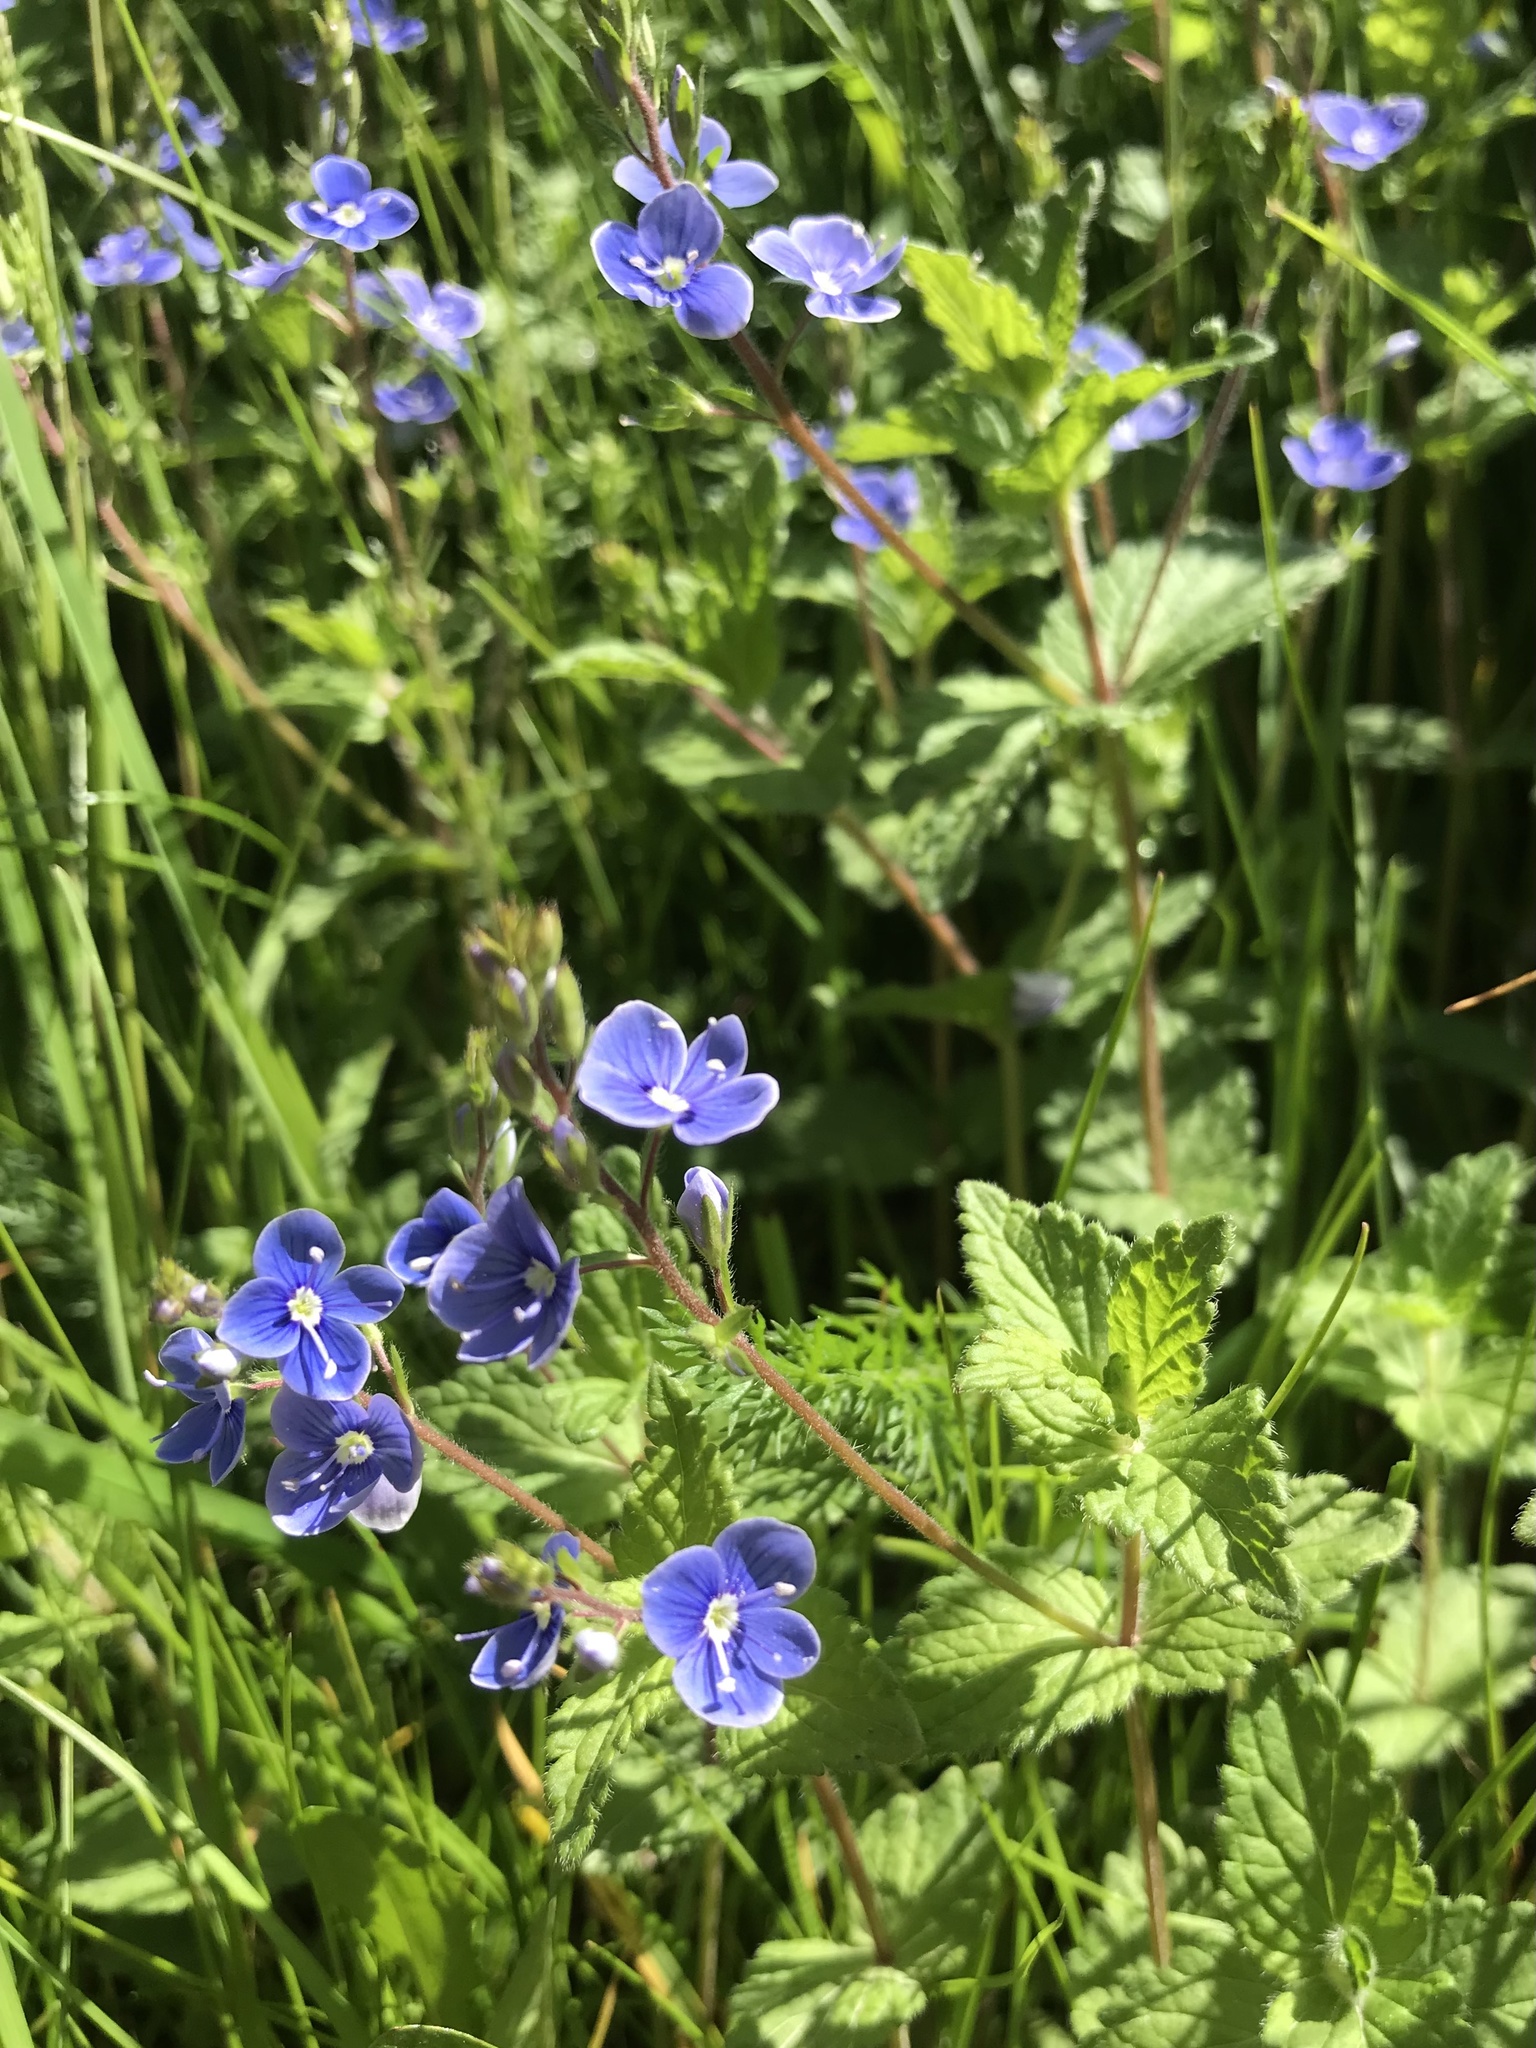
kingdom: Plantae
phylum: Tracheophyta
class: Magnoliopsida
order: Lamiales
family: Plantaginaceae
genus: Veronica
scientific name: Veronica chamaedrys
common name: Germander speedwell
